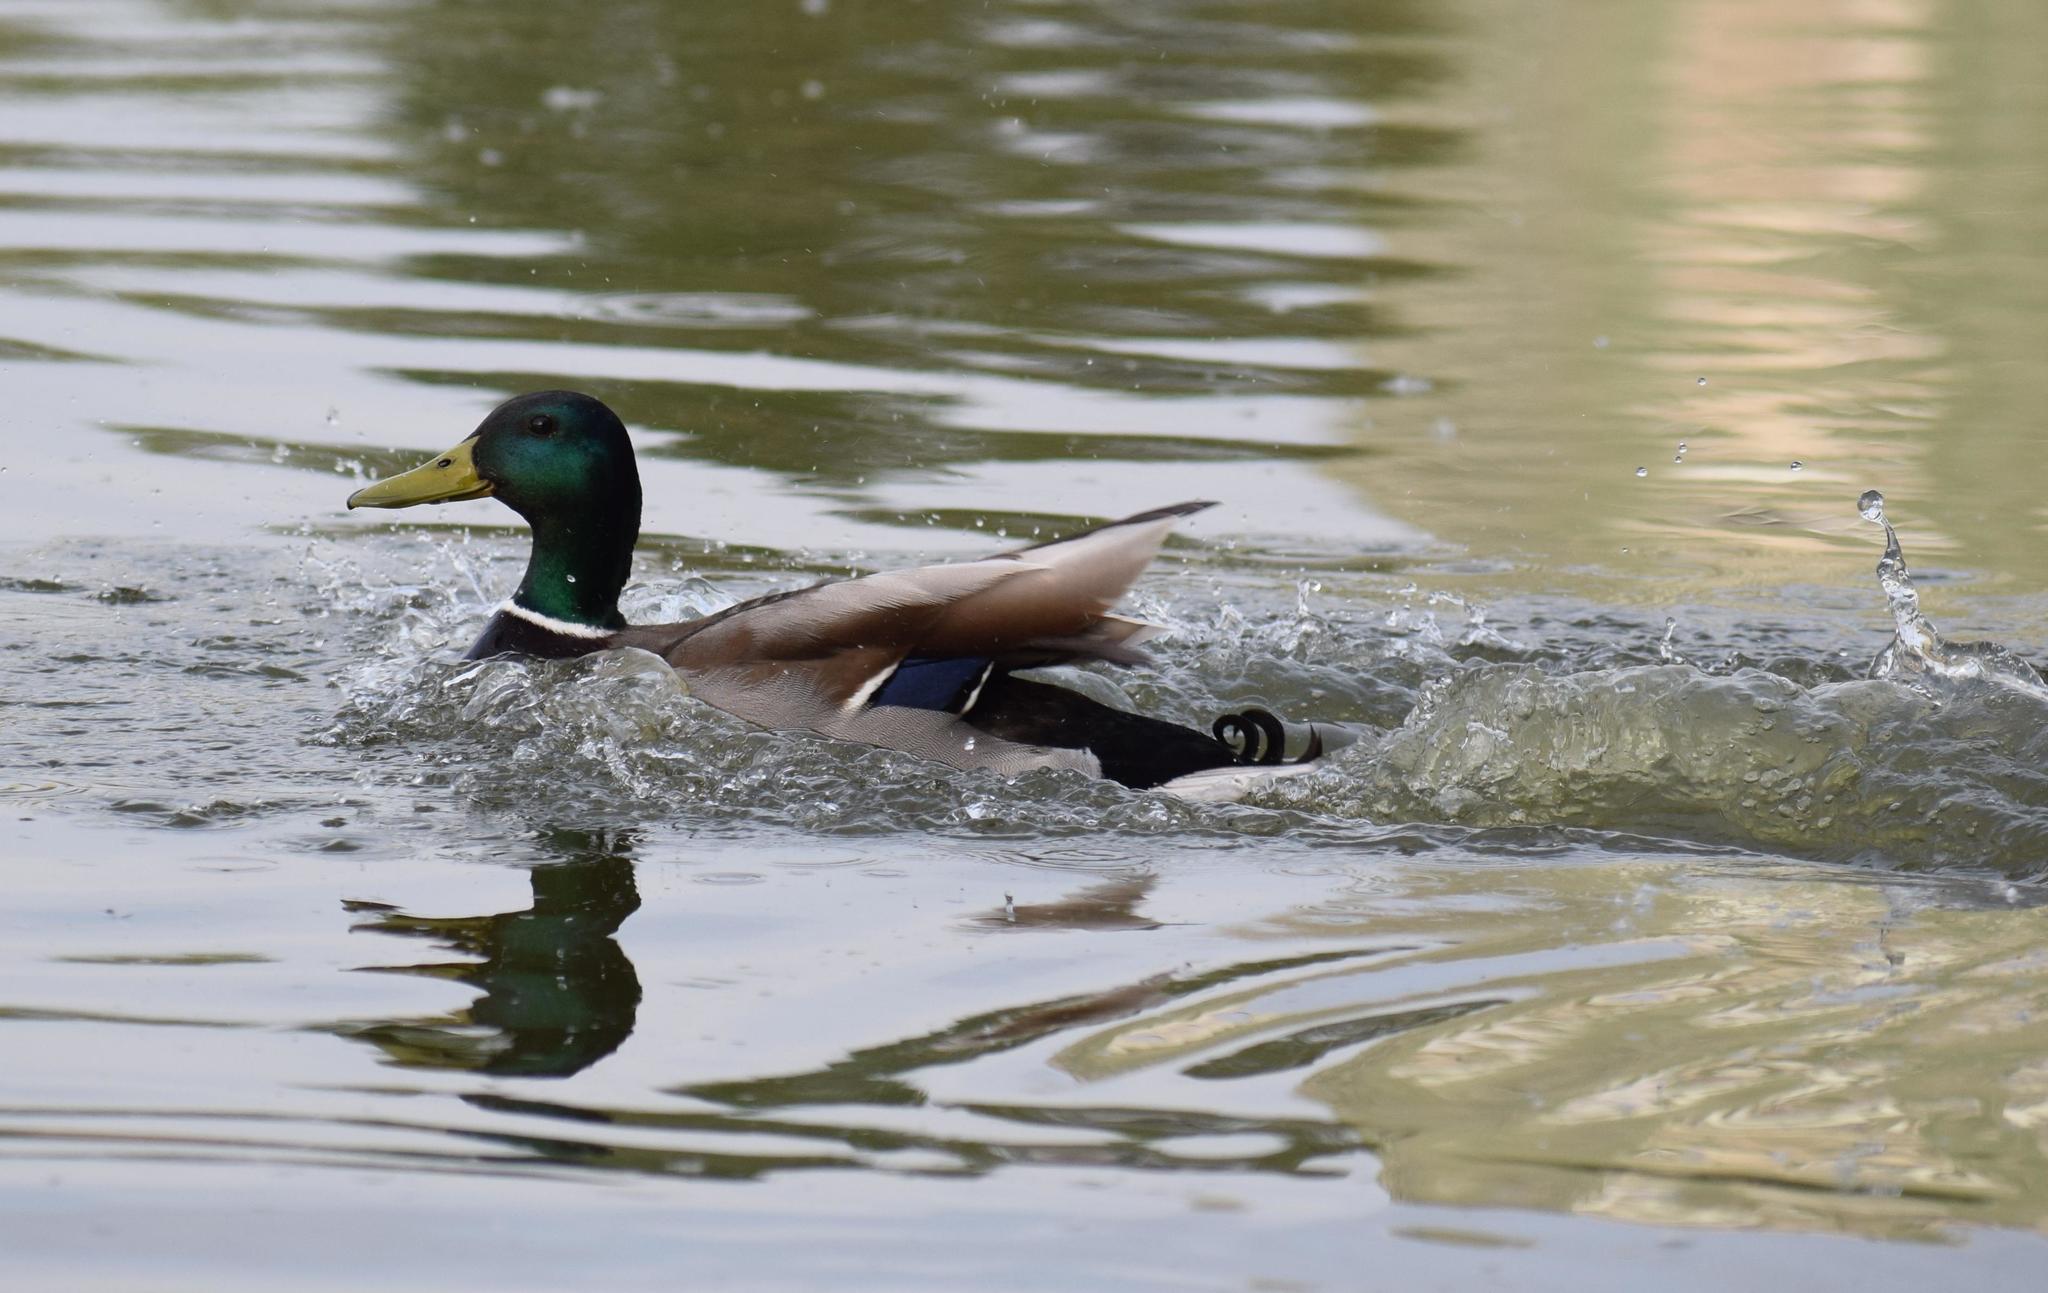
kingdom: Animalia
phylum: Chordata
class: Aves
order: Anseriformes
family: Anatidae
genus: Anas
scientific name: Anas platyrhynchos
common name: Mallard
